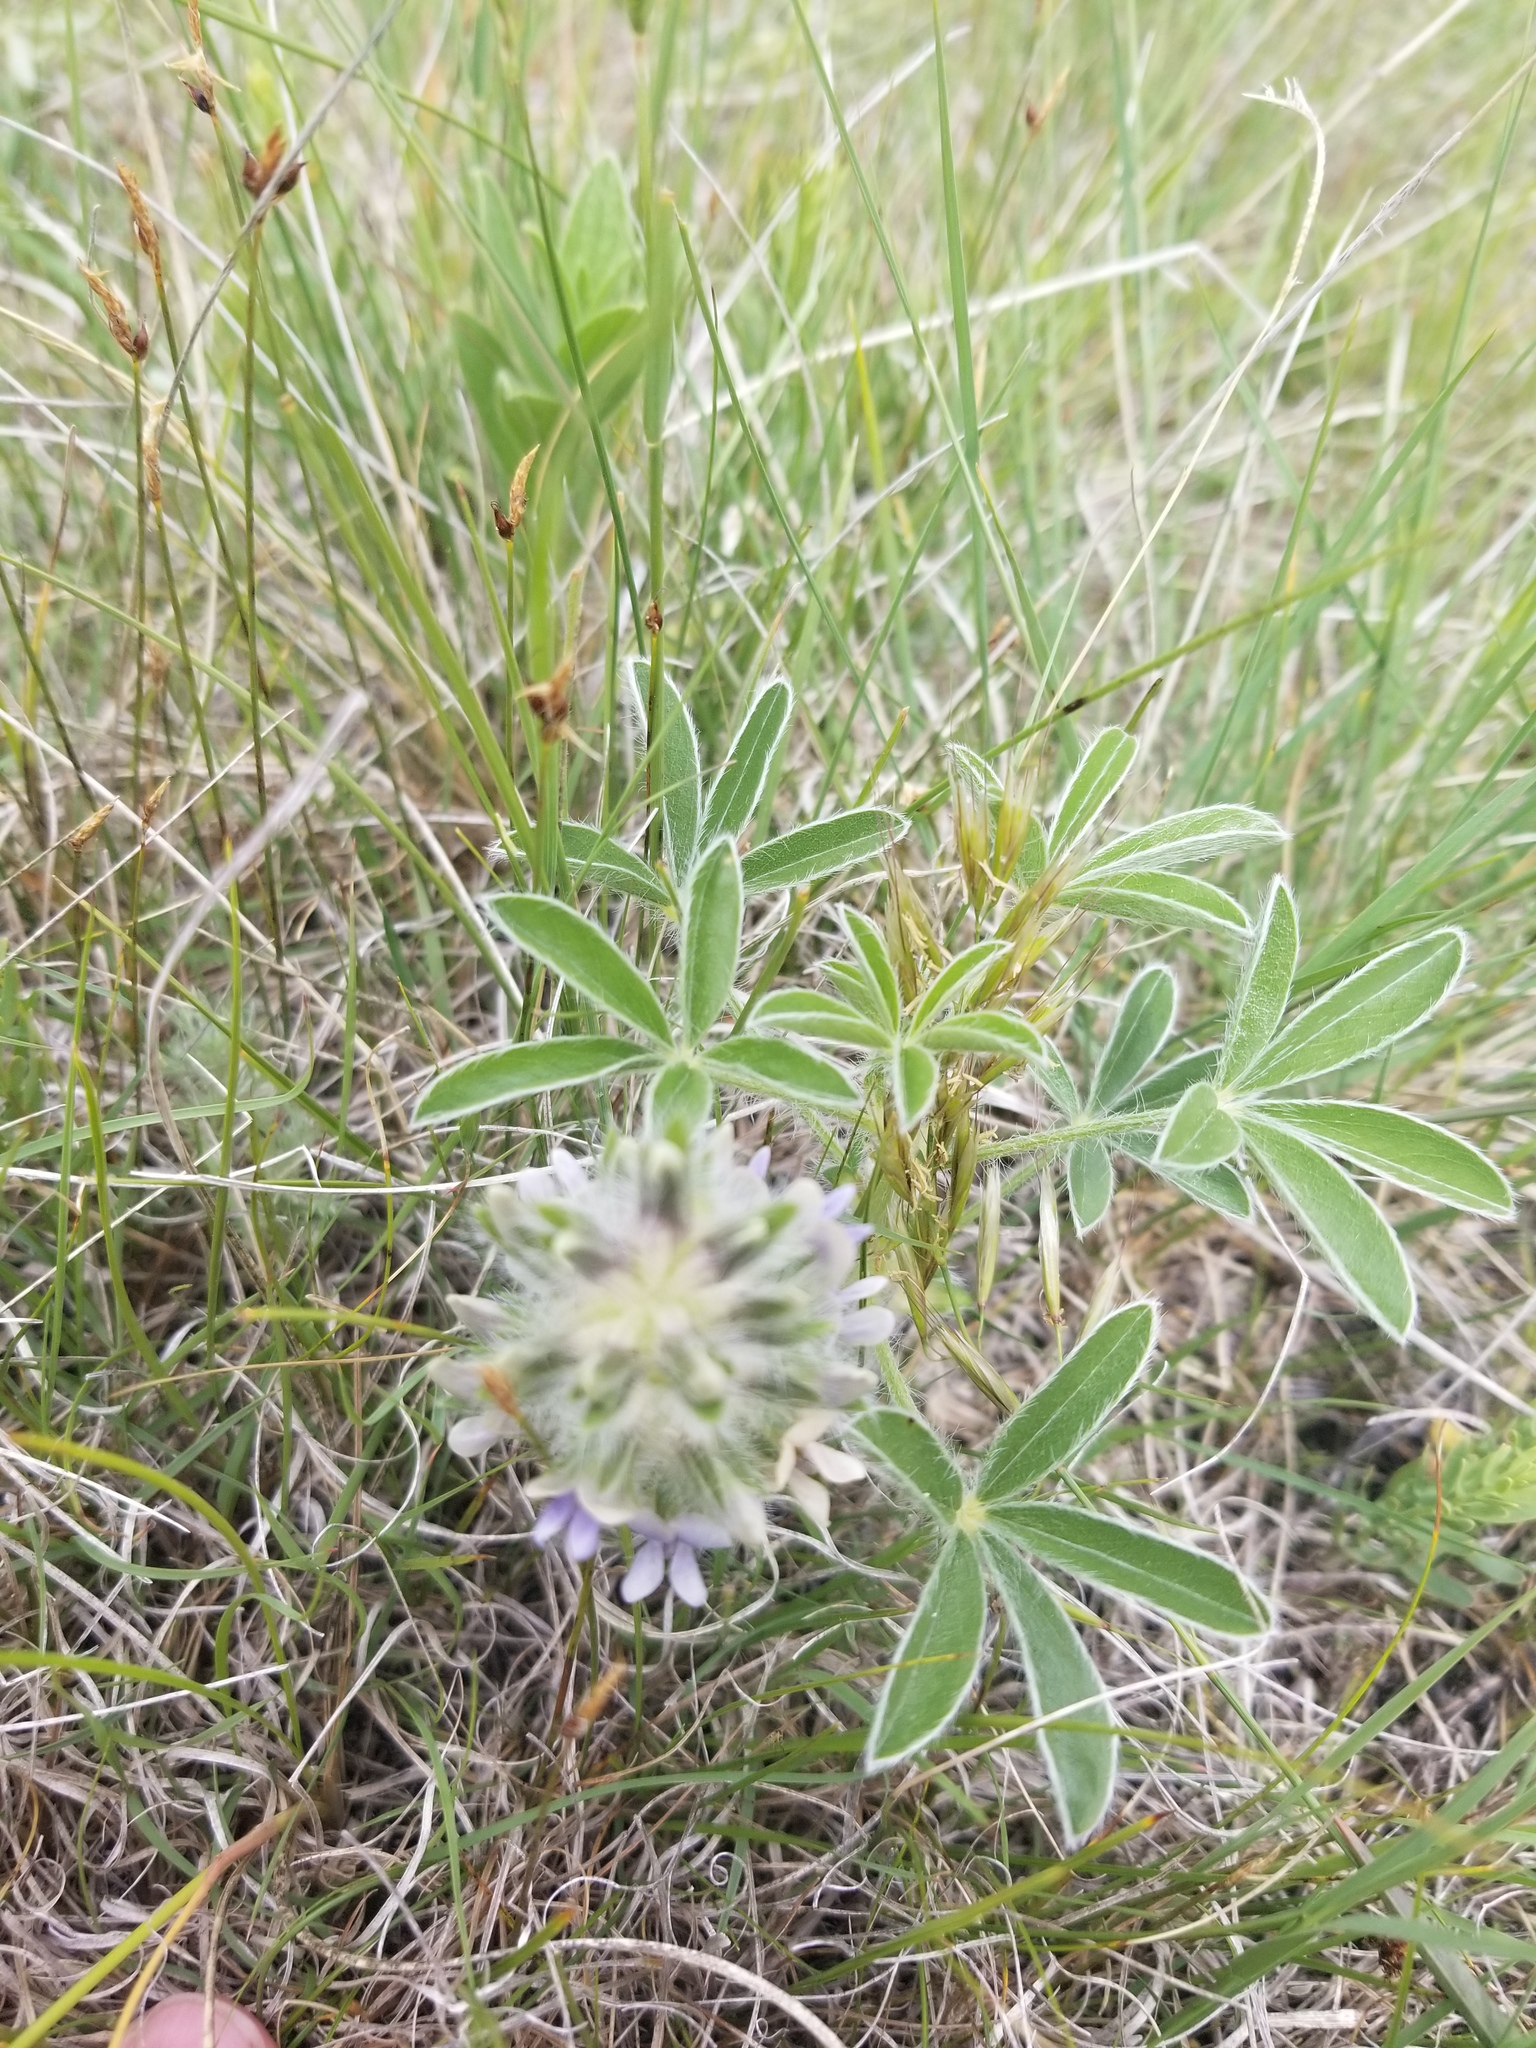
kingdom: Plantae
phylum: Tracheophyta
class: Magnoliopsida
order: Fabales
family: Fabaceae
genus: Pediomelum
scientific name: Pediomelum esculentum
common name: Indian-turnip
